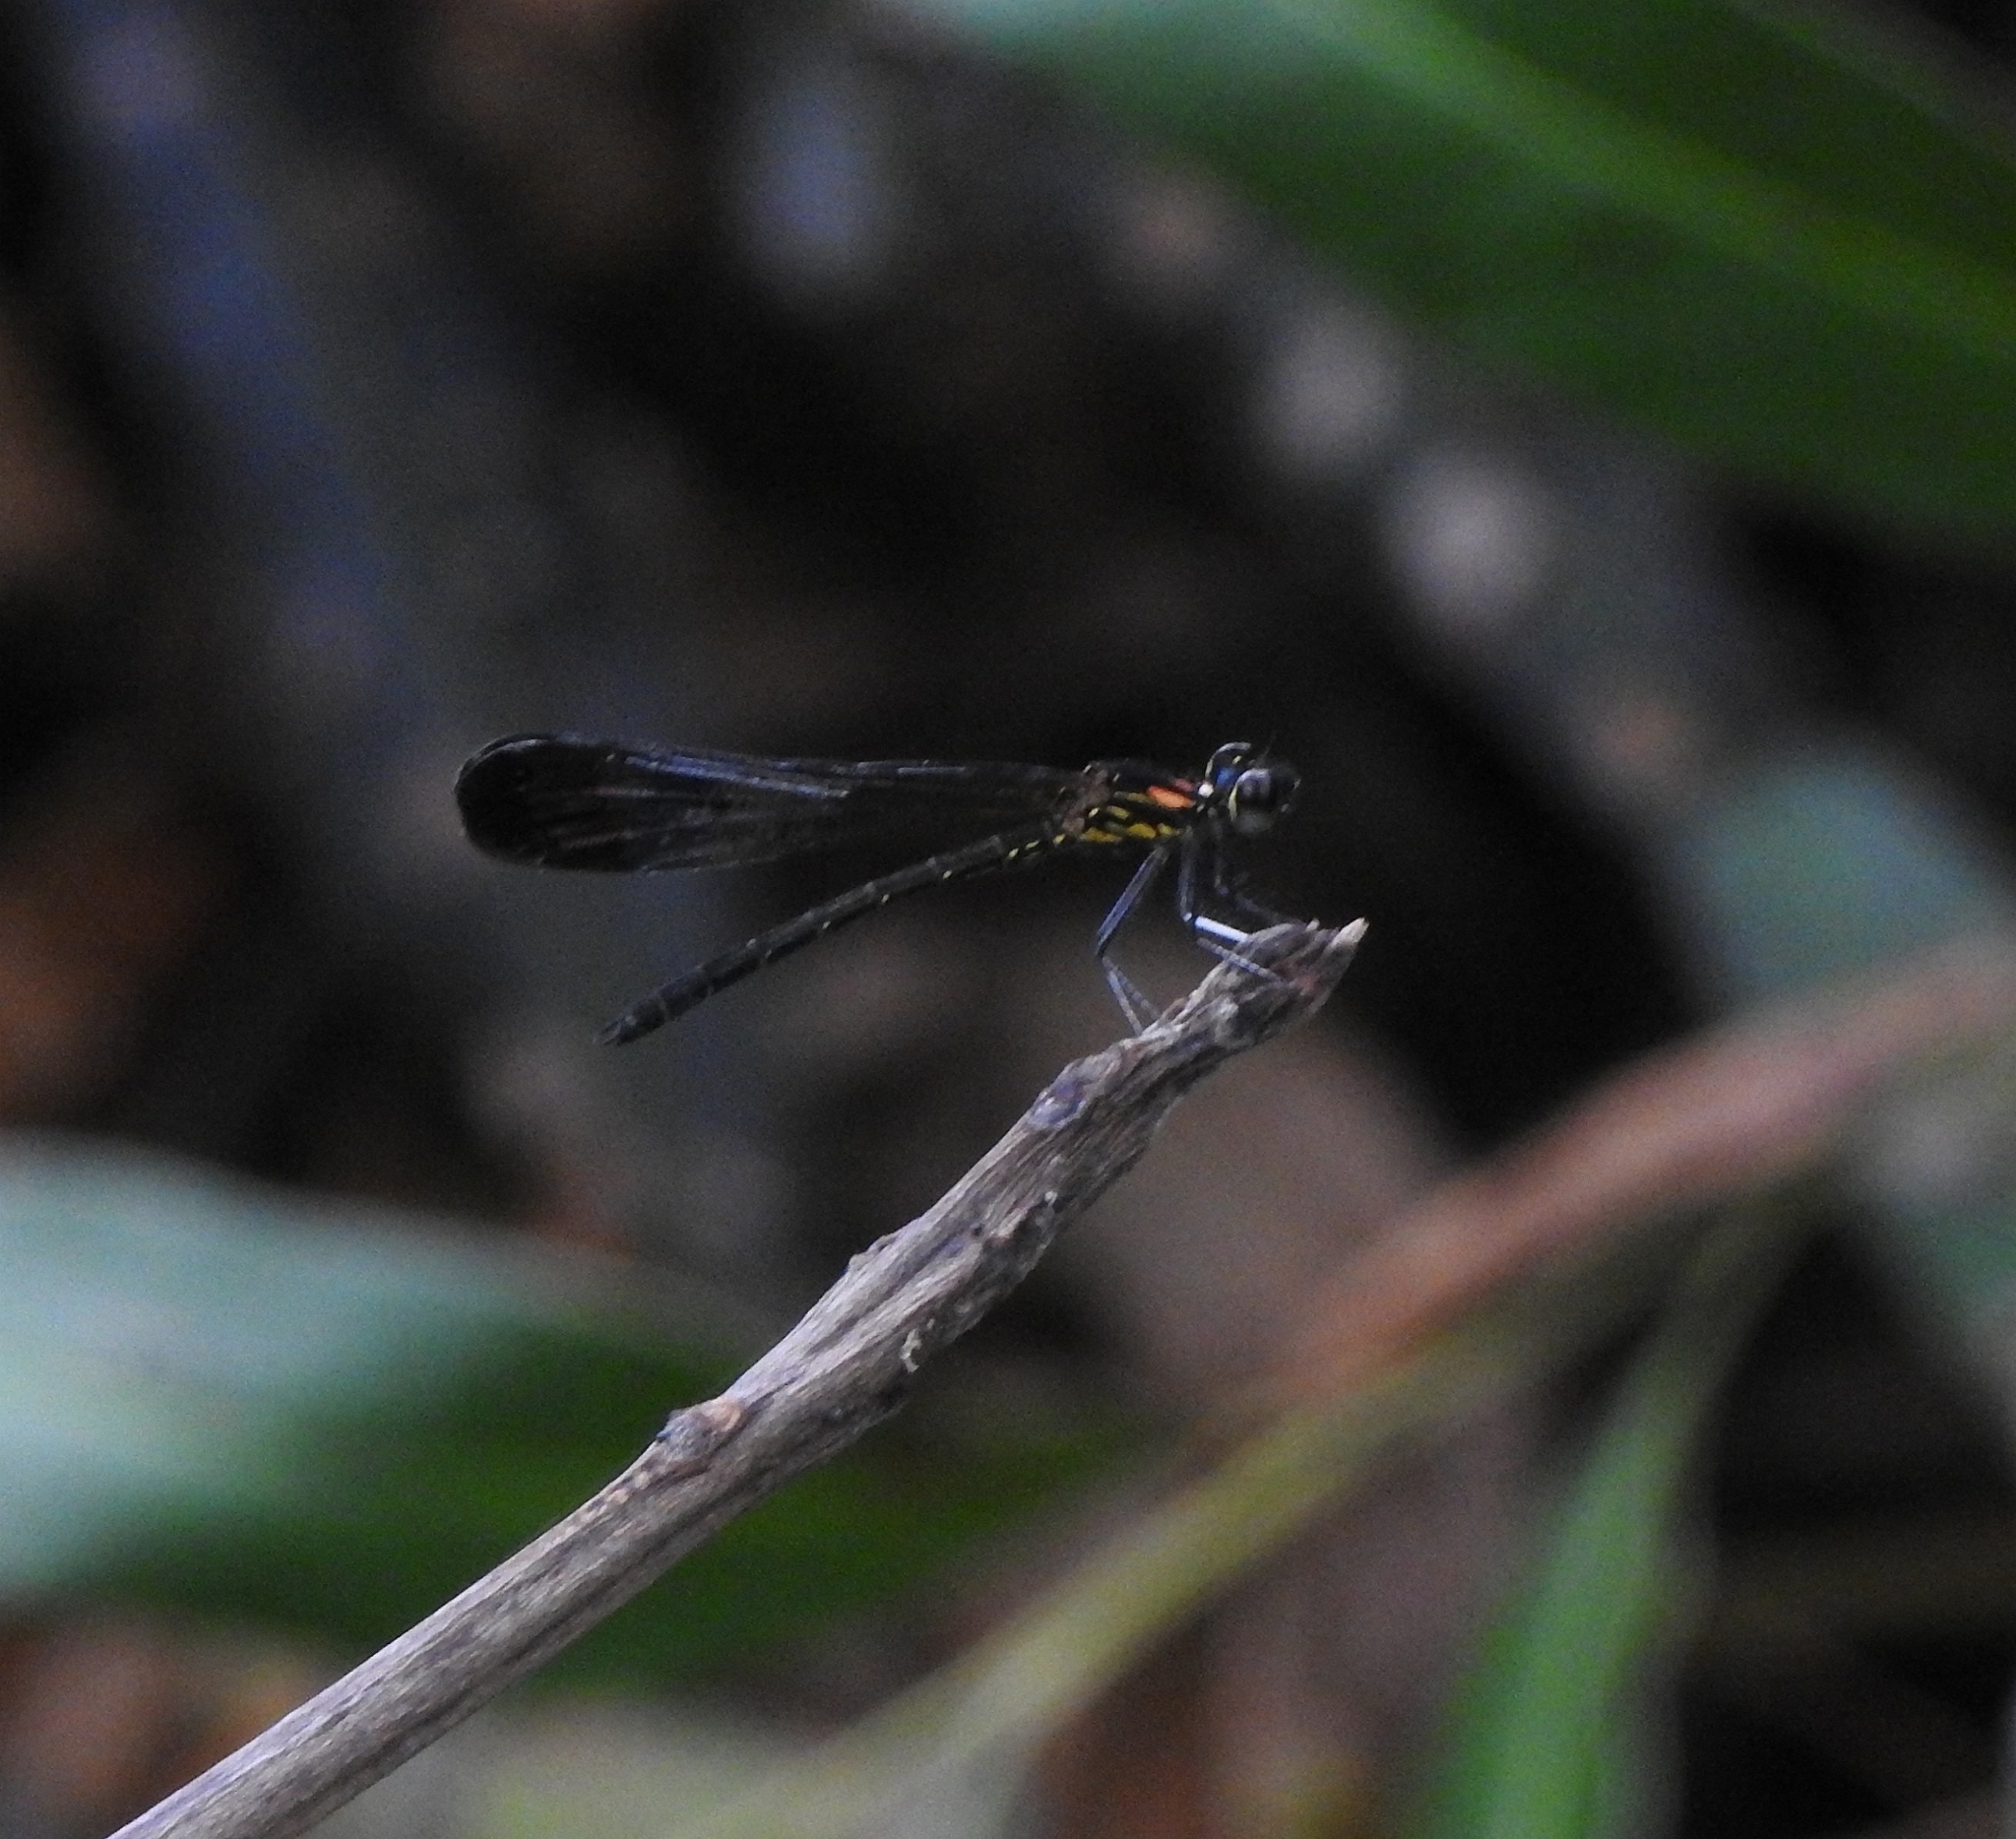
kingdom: Animalia
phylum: Arthropoda
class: Insecta
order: Odonata
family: Chlorocyphidae
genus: Heliocypha
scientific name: Heliocypha bisignata
